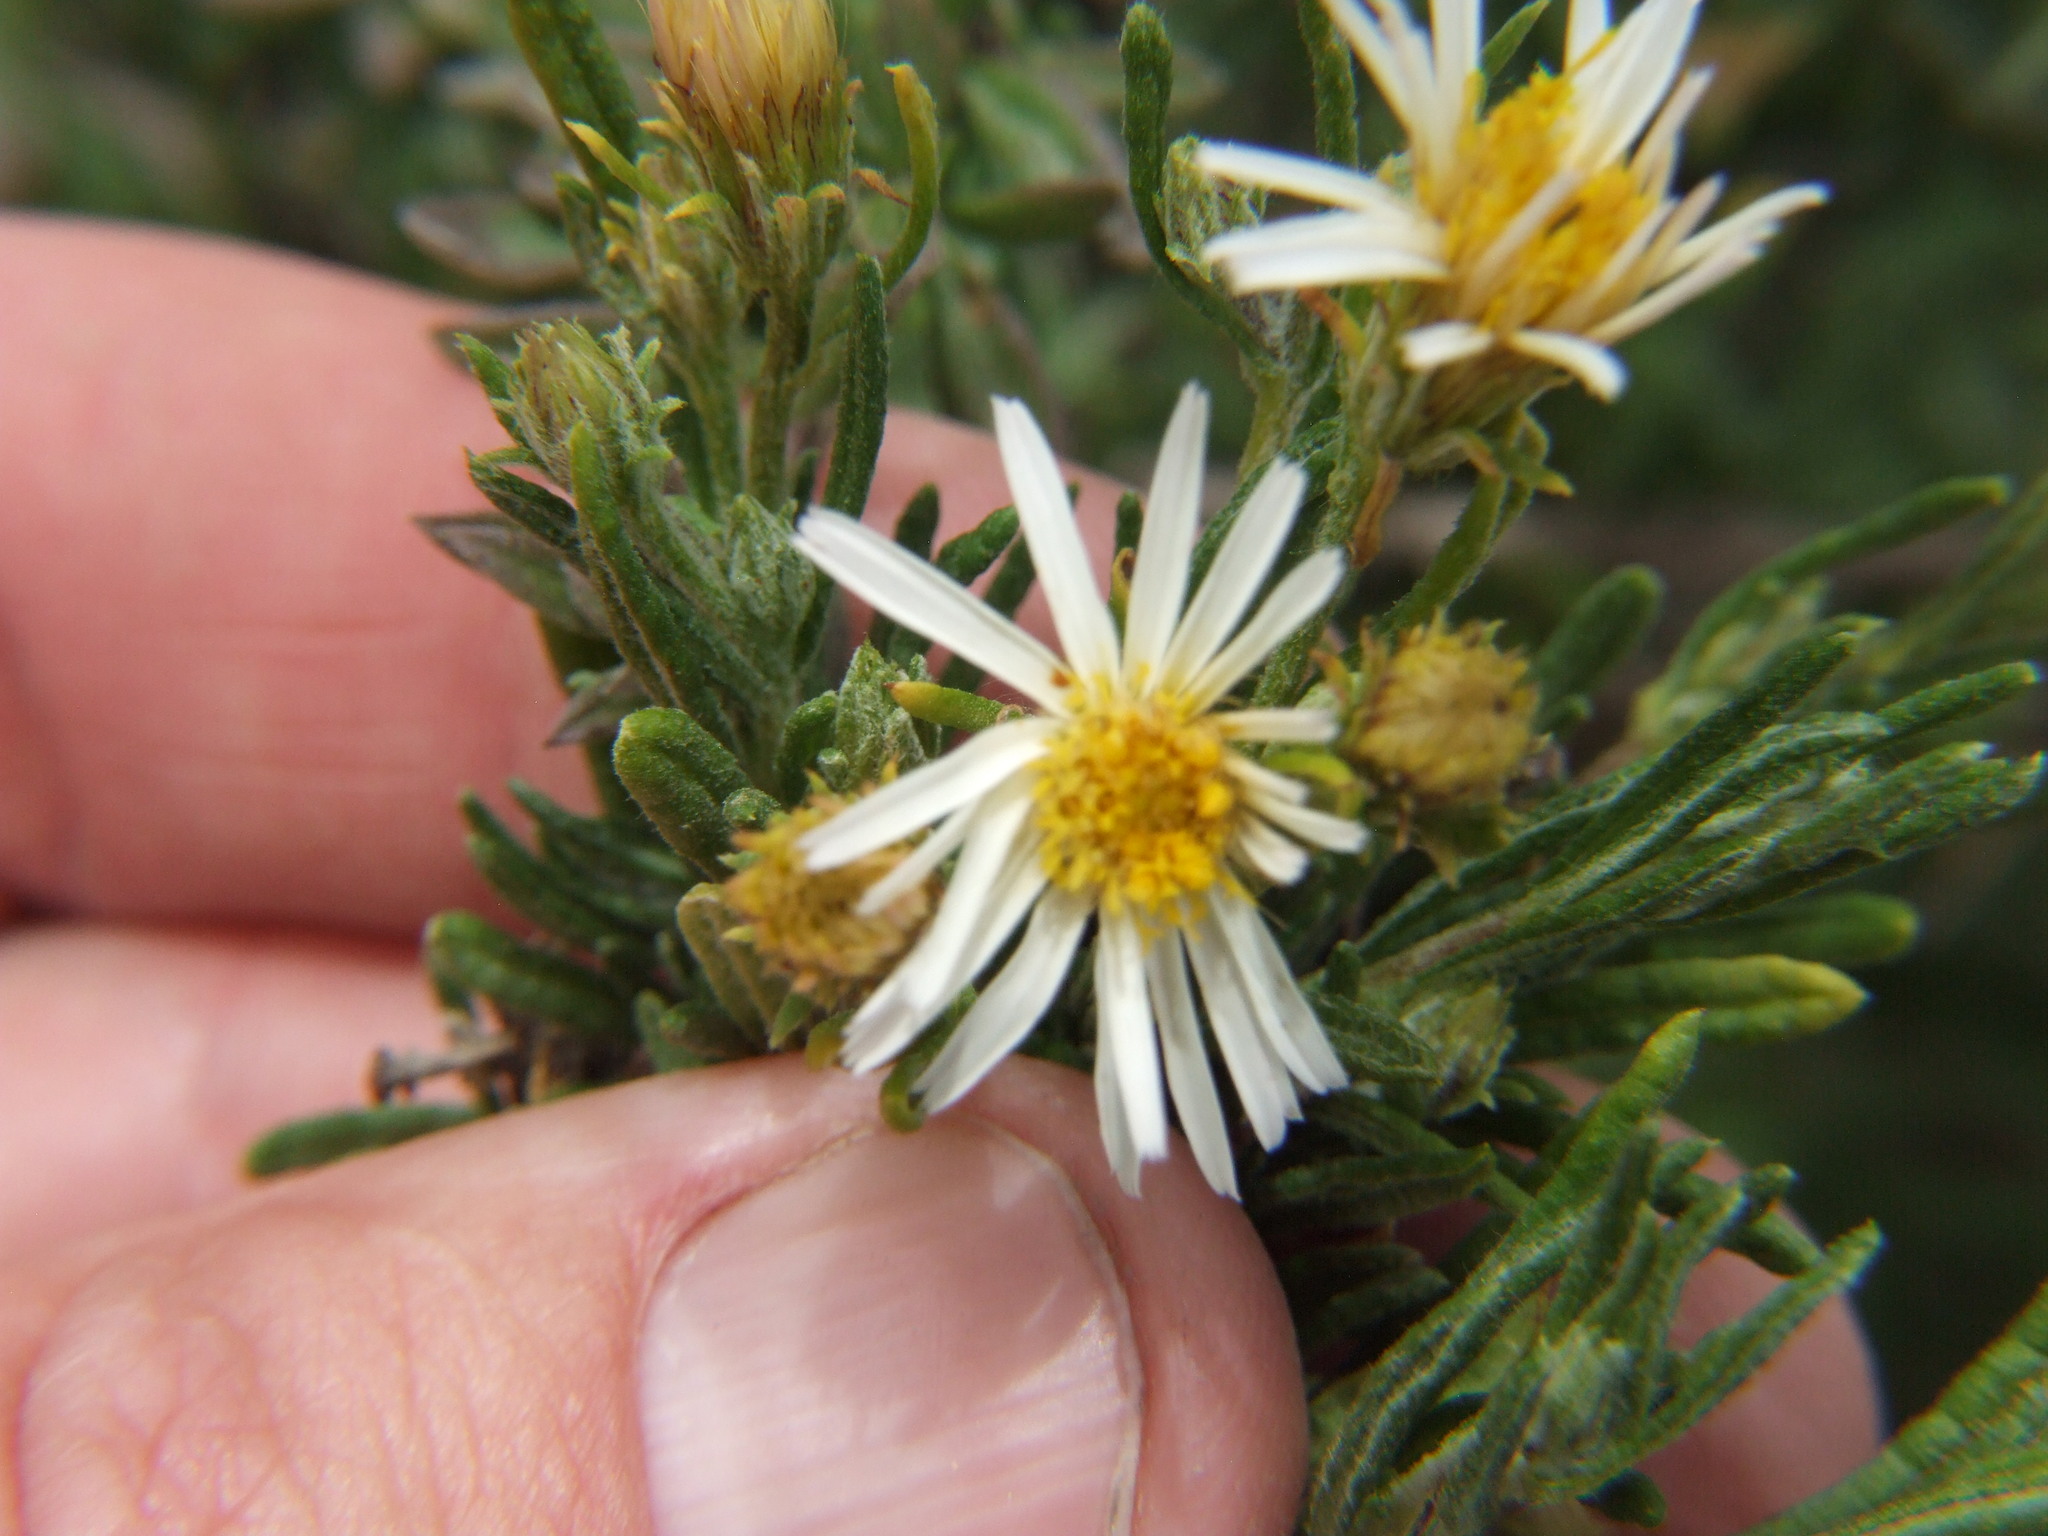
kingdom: Plantae
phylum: Tracheophyta
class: Magnoliopsida
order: Asterales
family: Asteraceae
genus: Diplostephium
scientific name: Diplostephium meyenii
